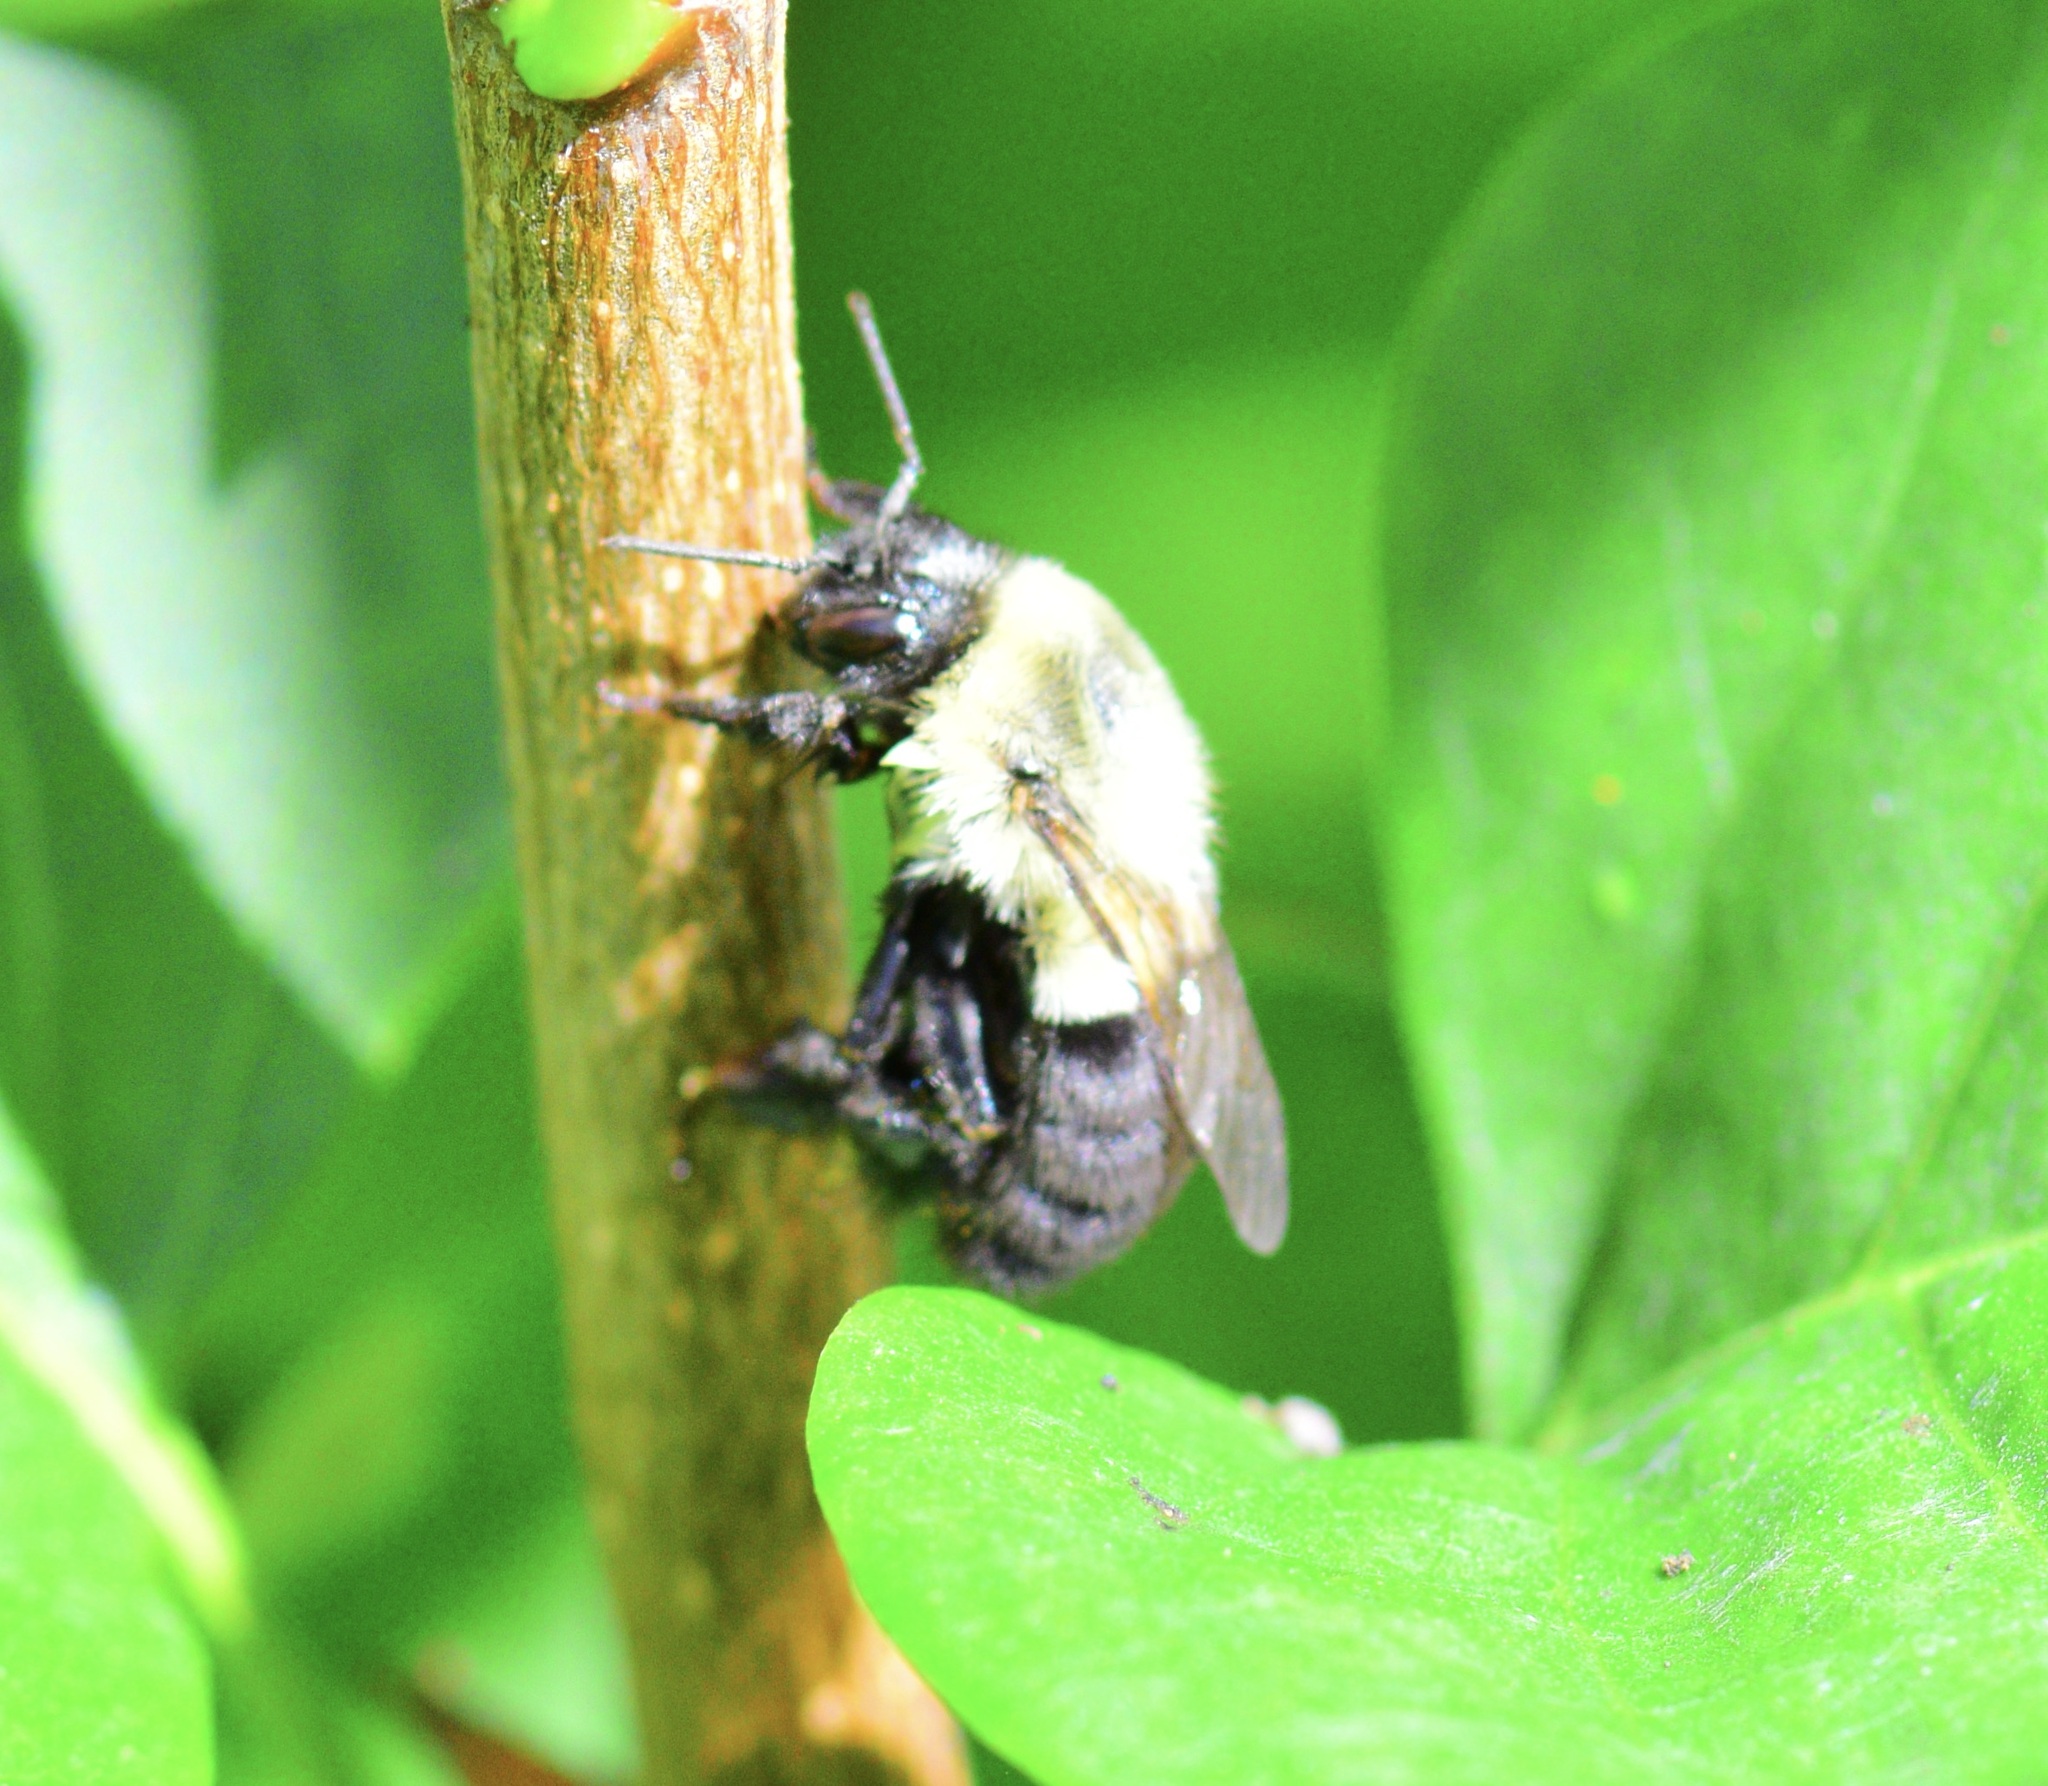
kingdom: Animalia
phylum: Arthropoda
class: Insecta
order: Hymenoptera
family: Apidae
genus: Bombus
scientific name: Bombus impatiens
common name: Common eastern bumble bee
